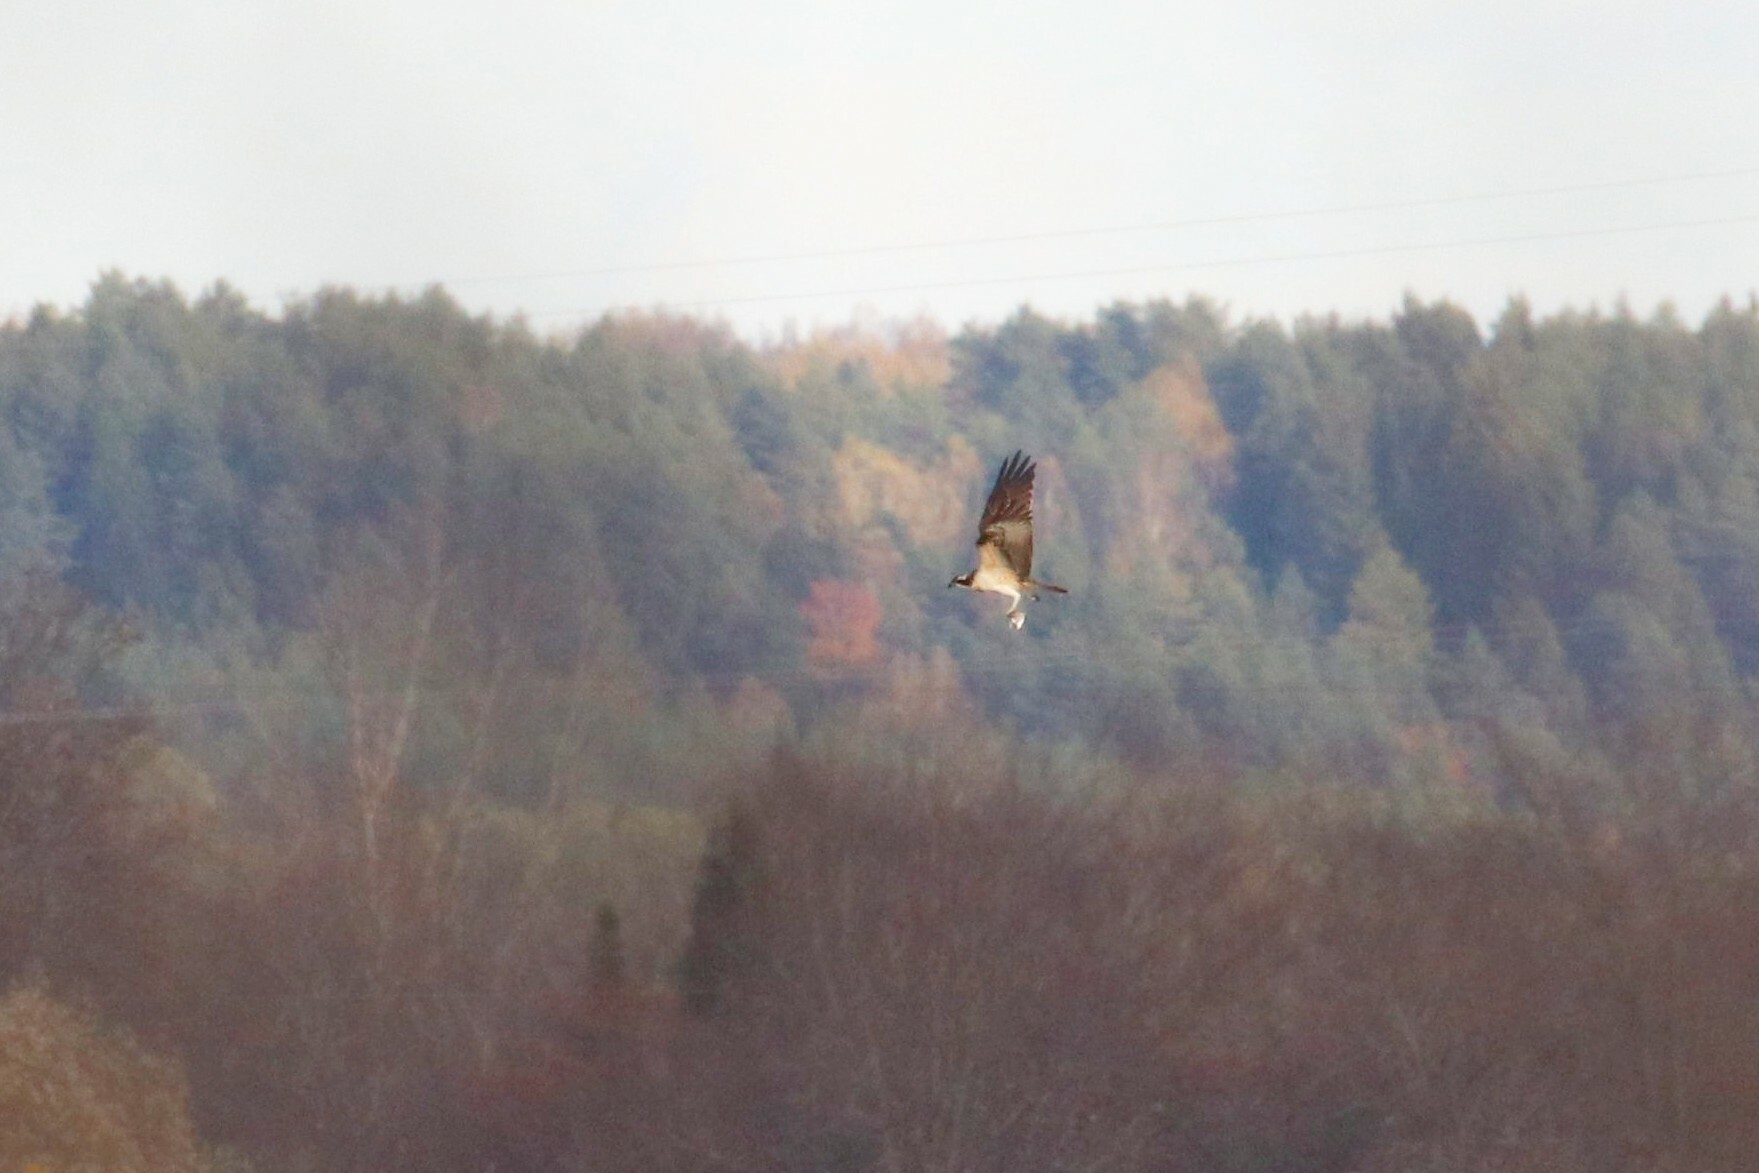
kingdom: Animalia
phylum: Chordata
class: Aves
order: Accipitriformes
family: Pandionidae
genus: Pandion
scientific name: Pandion haliaetus
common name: Osprey
